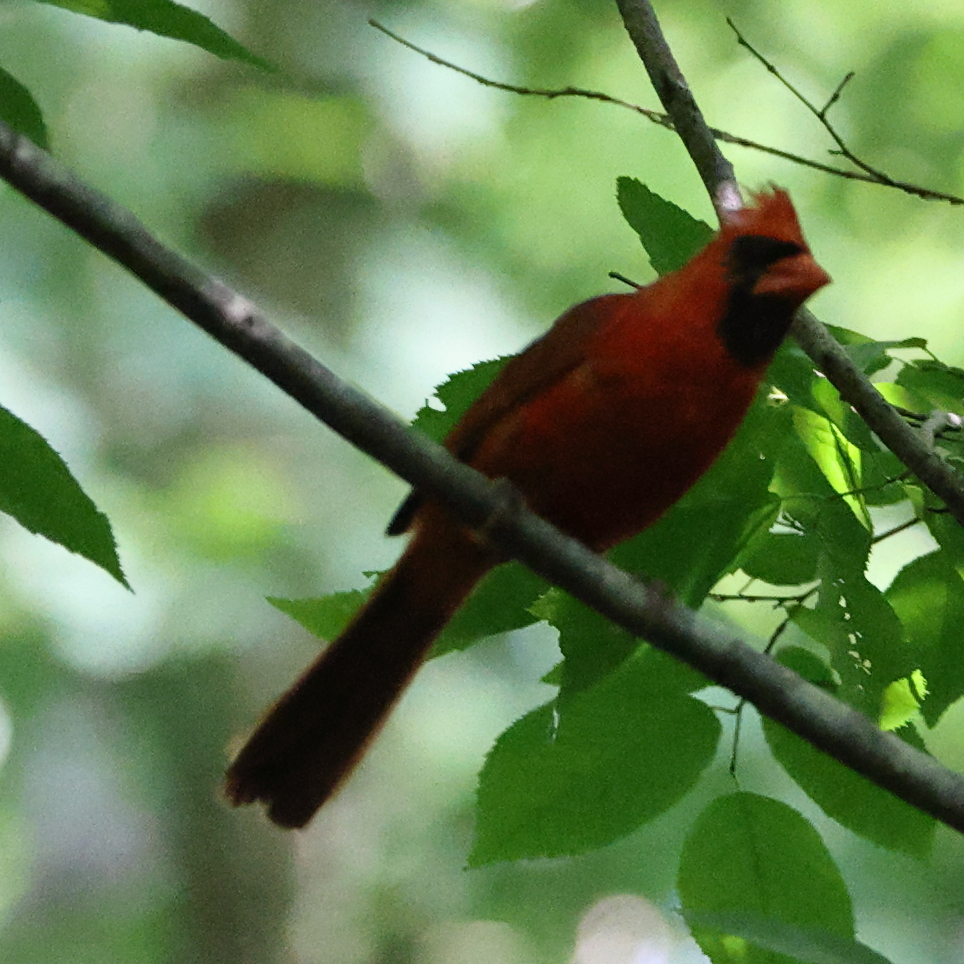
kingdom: Animalia
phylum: Chordata
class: Aves
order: Passeriformes
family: Cardinalidae
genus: Cardinalis
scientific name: Cardinalis cardinalis
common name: Northern cardinal
